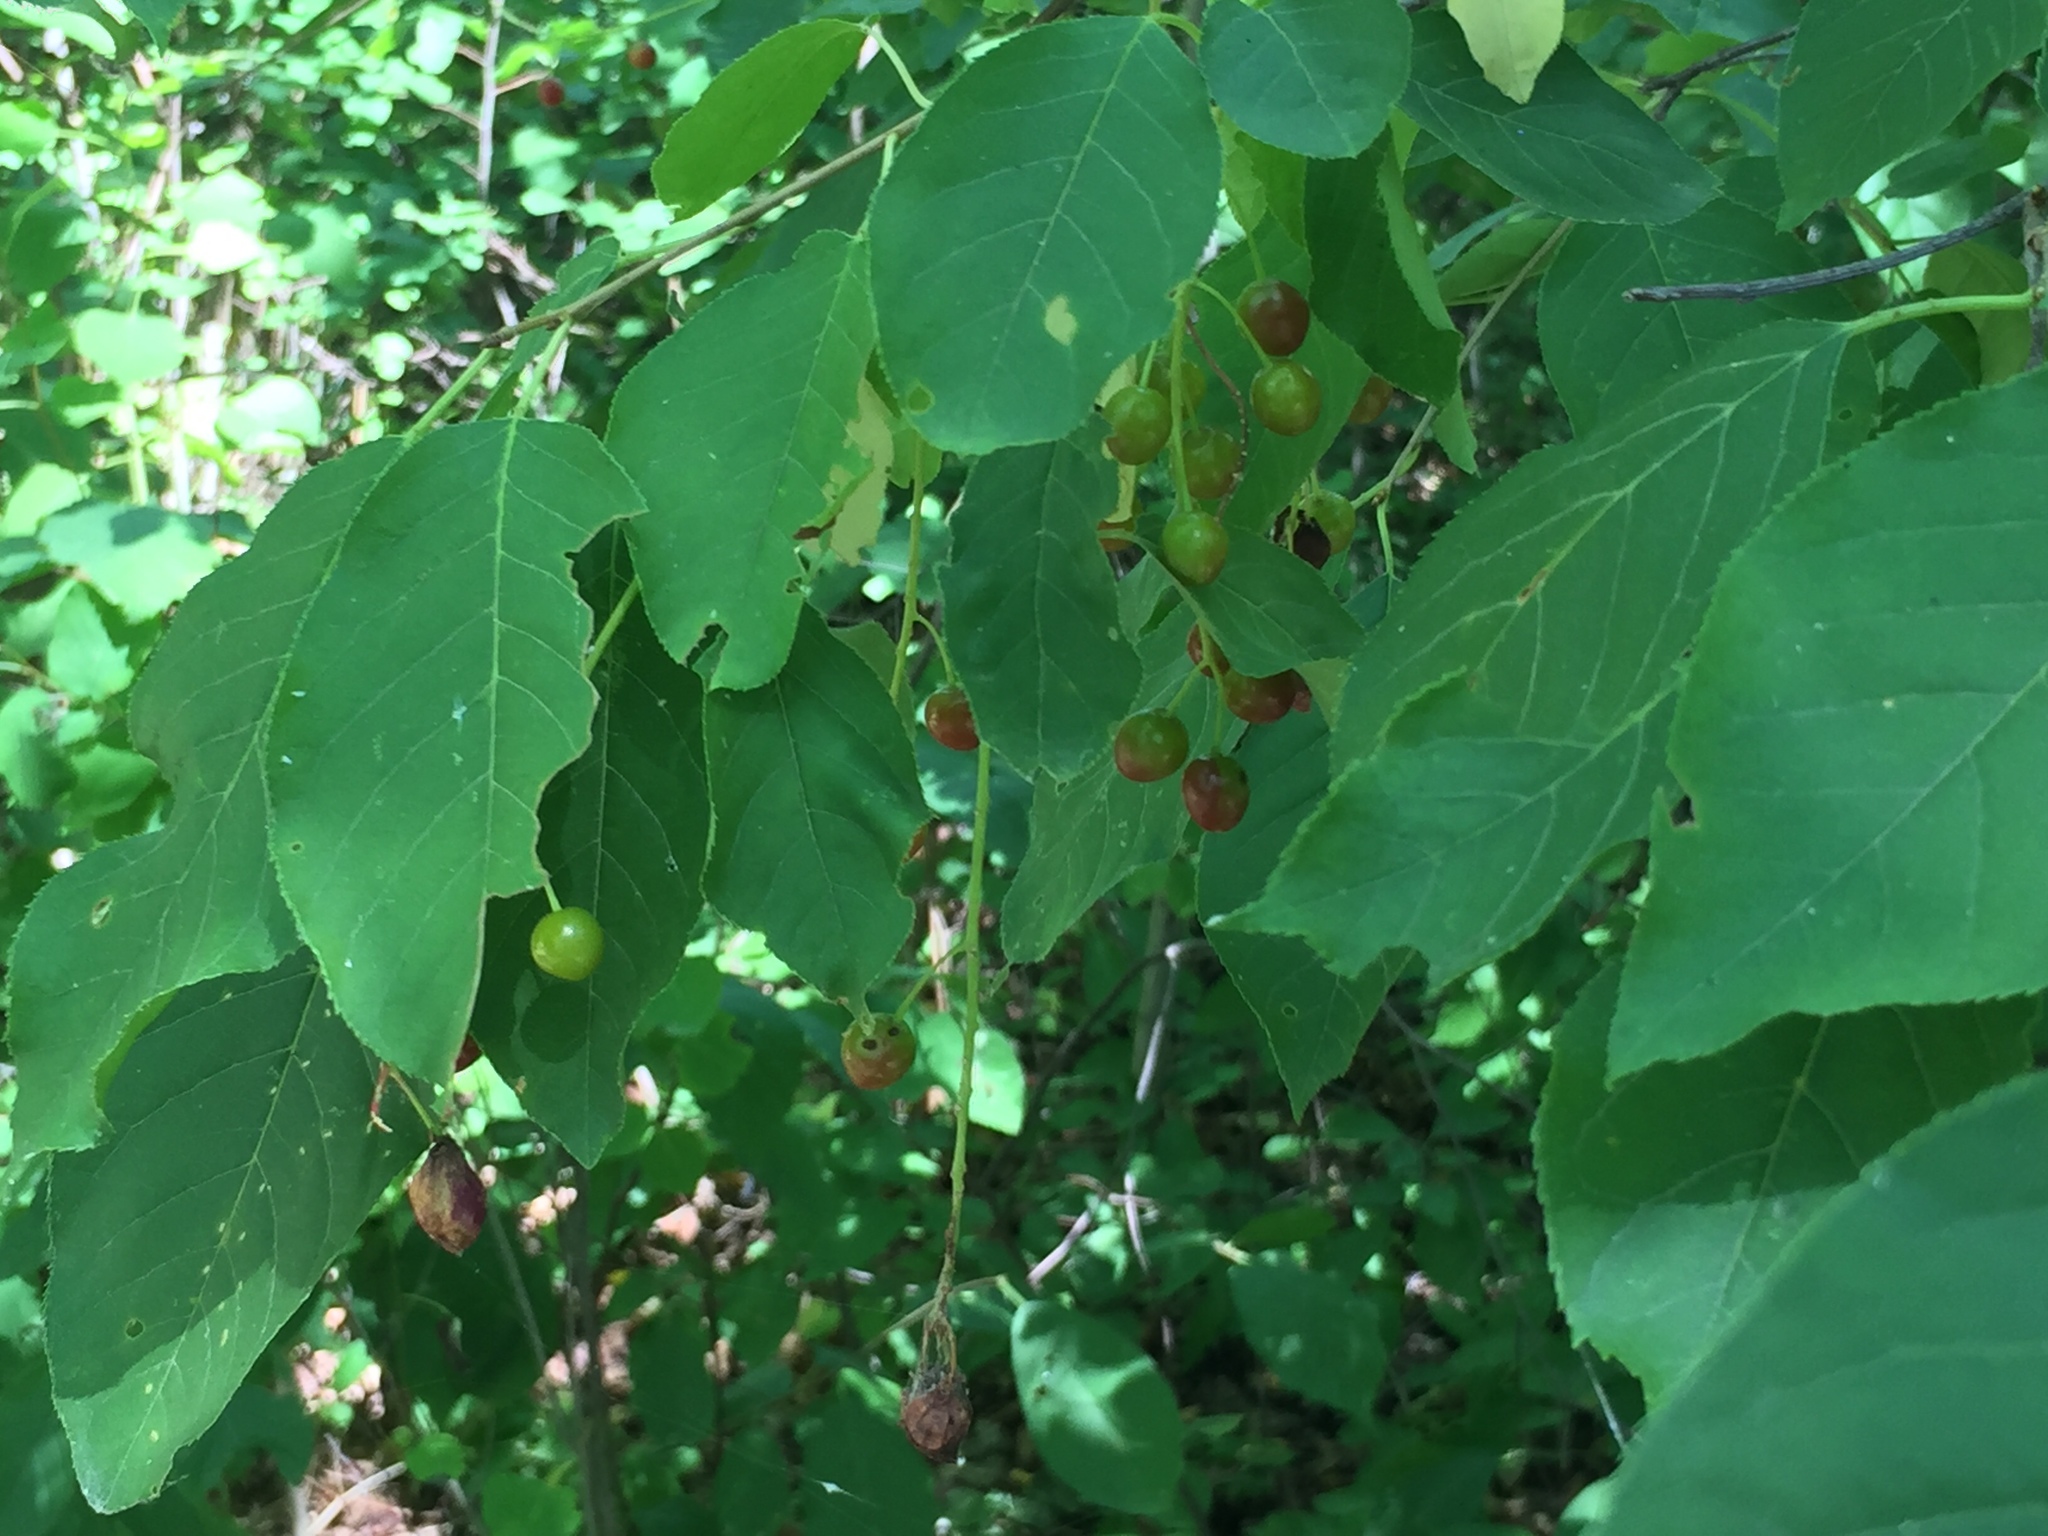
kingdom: Plantae
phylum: Tracheophyta
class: Magnoliopsida
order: Rosales
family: Rosaceae
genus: Prunus
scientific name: Prunus virginiana
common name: Chokecherry
